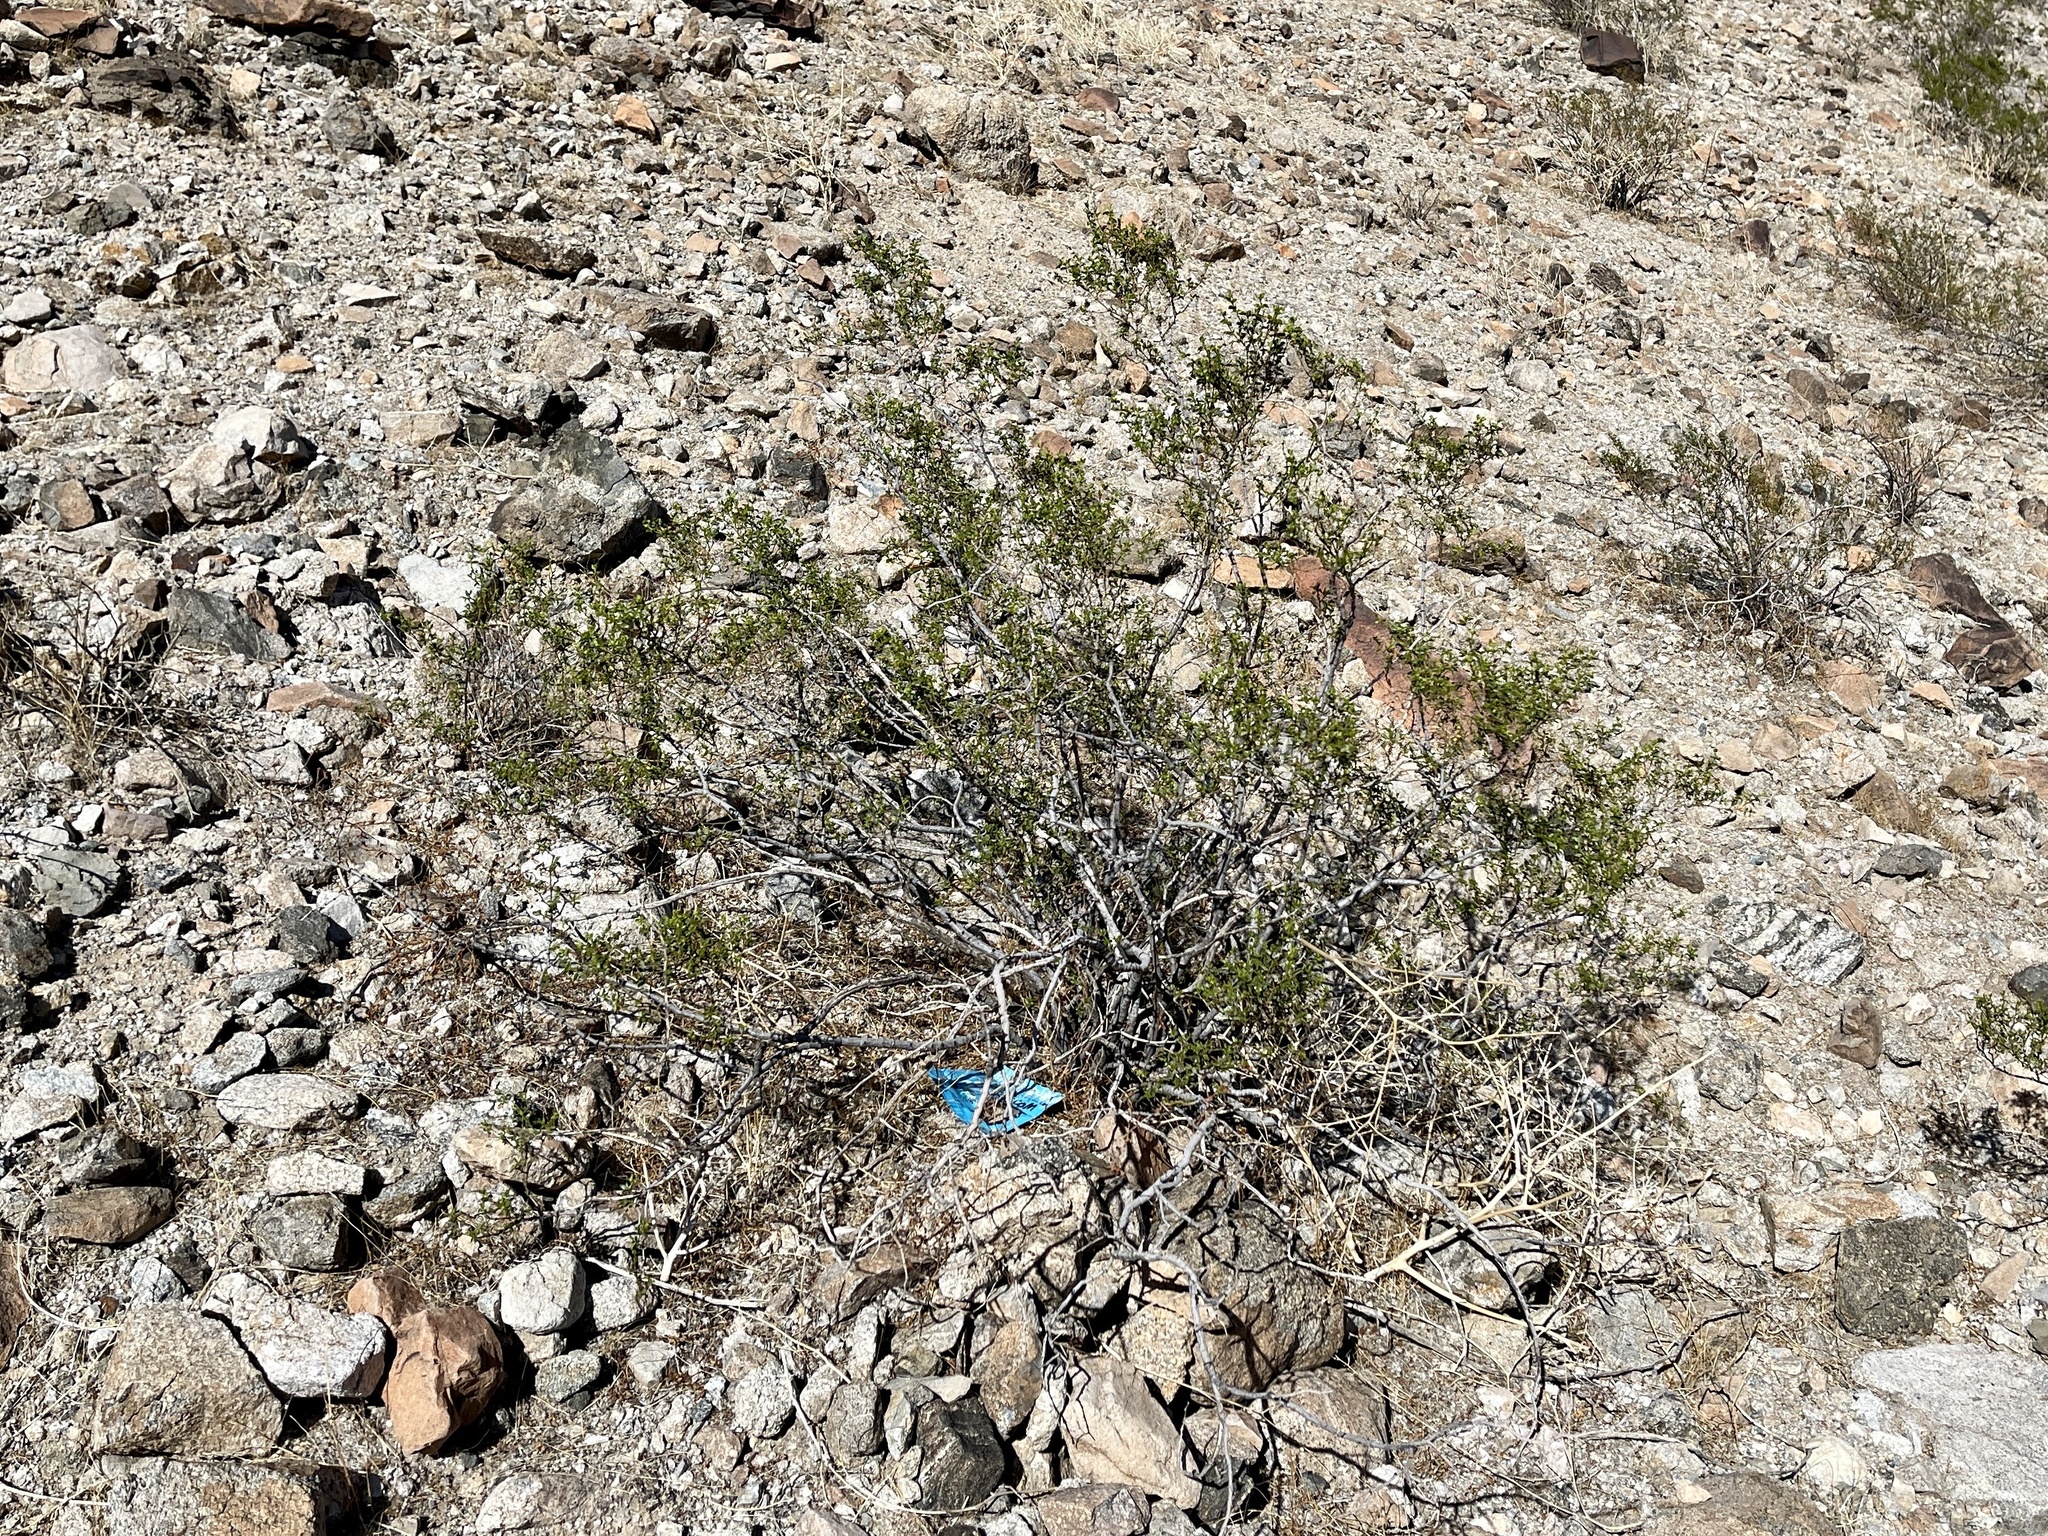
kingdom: Plantae
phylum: Tracheophyta
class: Magnoliopsida
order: Zygophyllales
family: Zygophyllaceae
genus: Larrea
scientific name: Larrea tridentata
